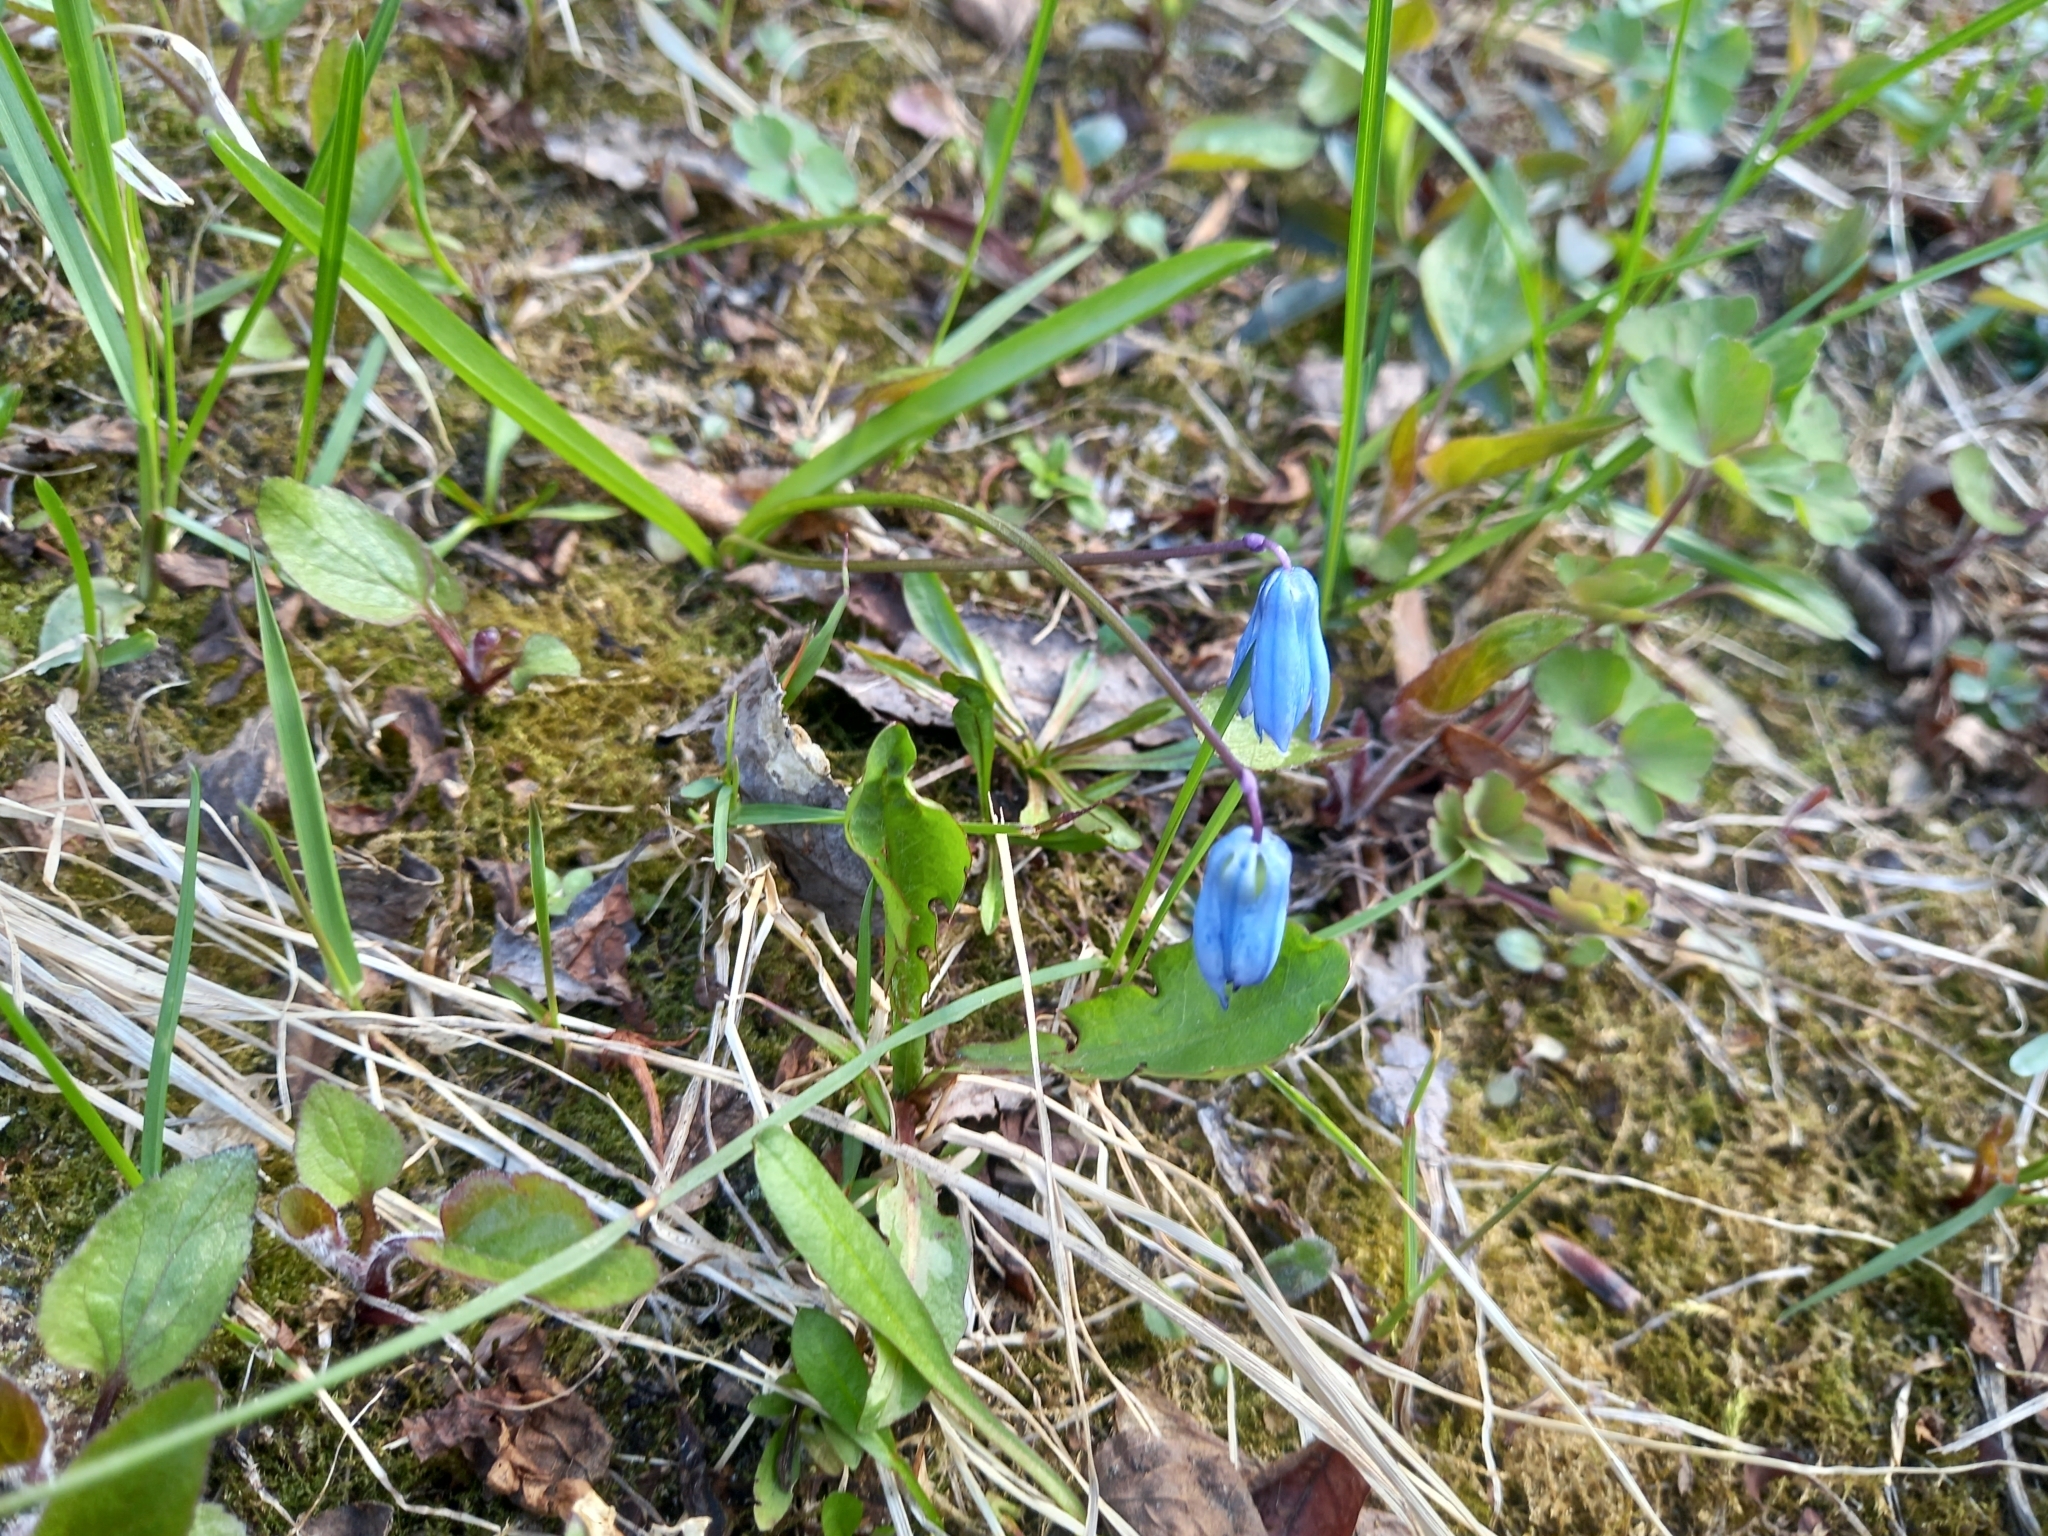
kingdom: Plantae
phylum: Tracheophyta
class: Liliopsida
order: Asparagales
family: Asparagaceae
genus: Scilla
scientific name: Scilla siberica
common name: Siberian squill
